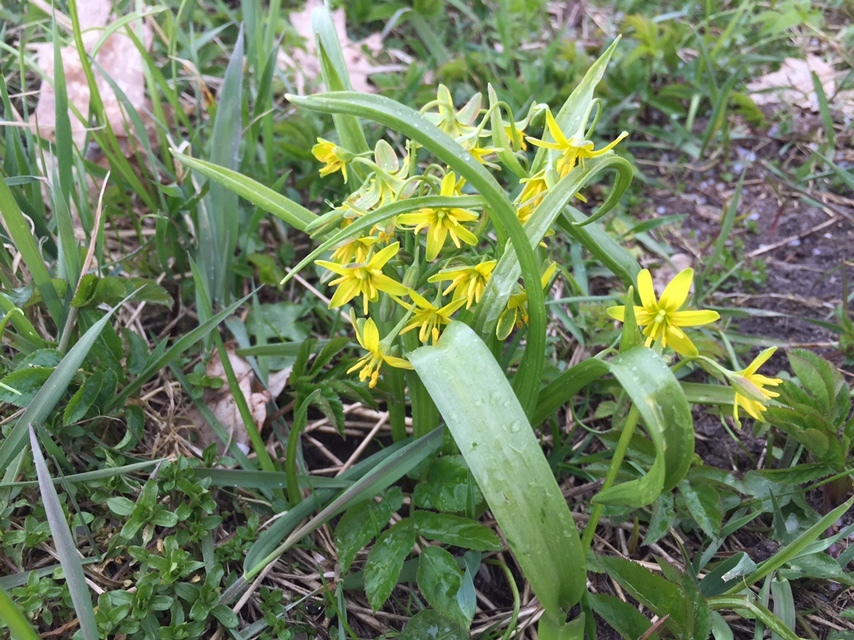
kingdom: Plantae
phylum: Tracheophyta
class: Liliopsida
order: Liliales
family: Liliaceae
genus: Gagea
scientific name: Gagea lutea
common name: Yellow star-of-bethlehem
